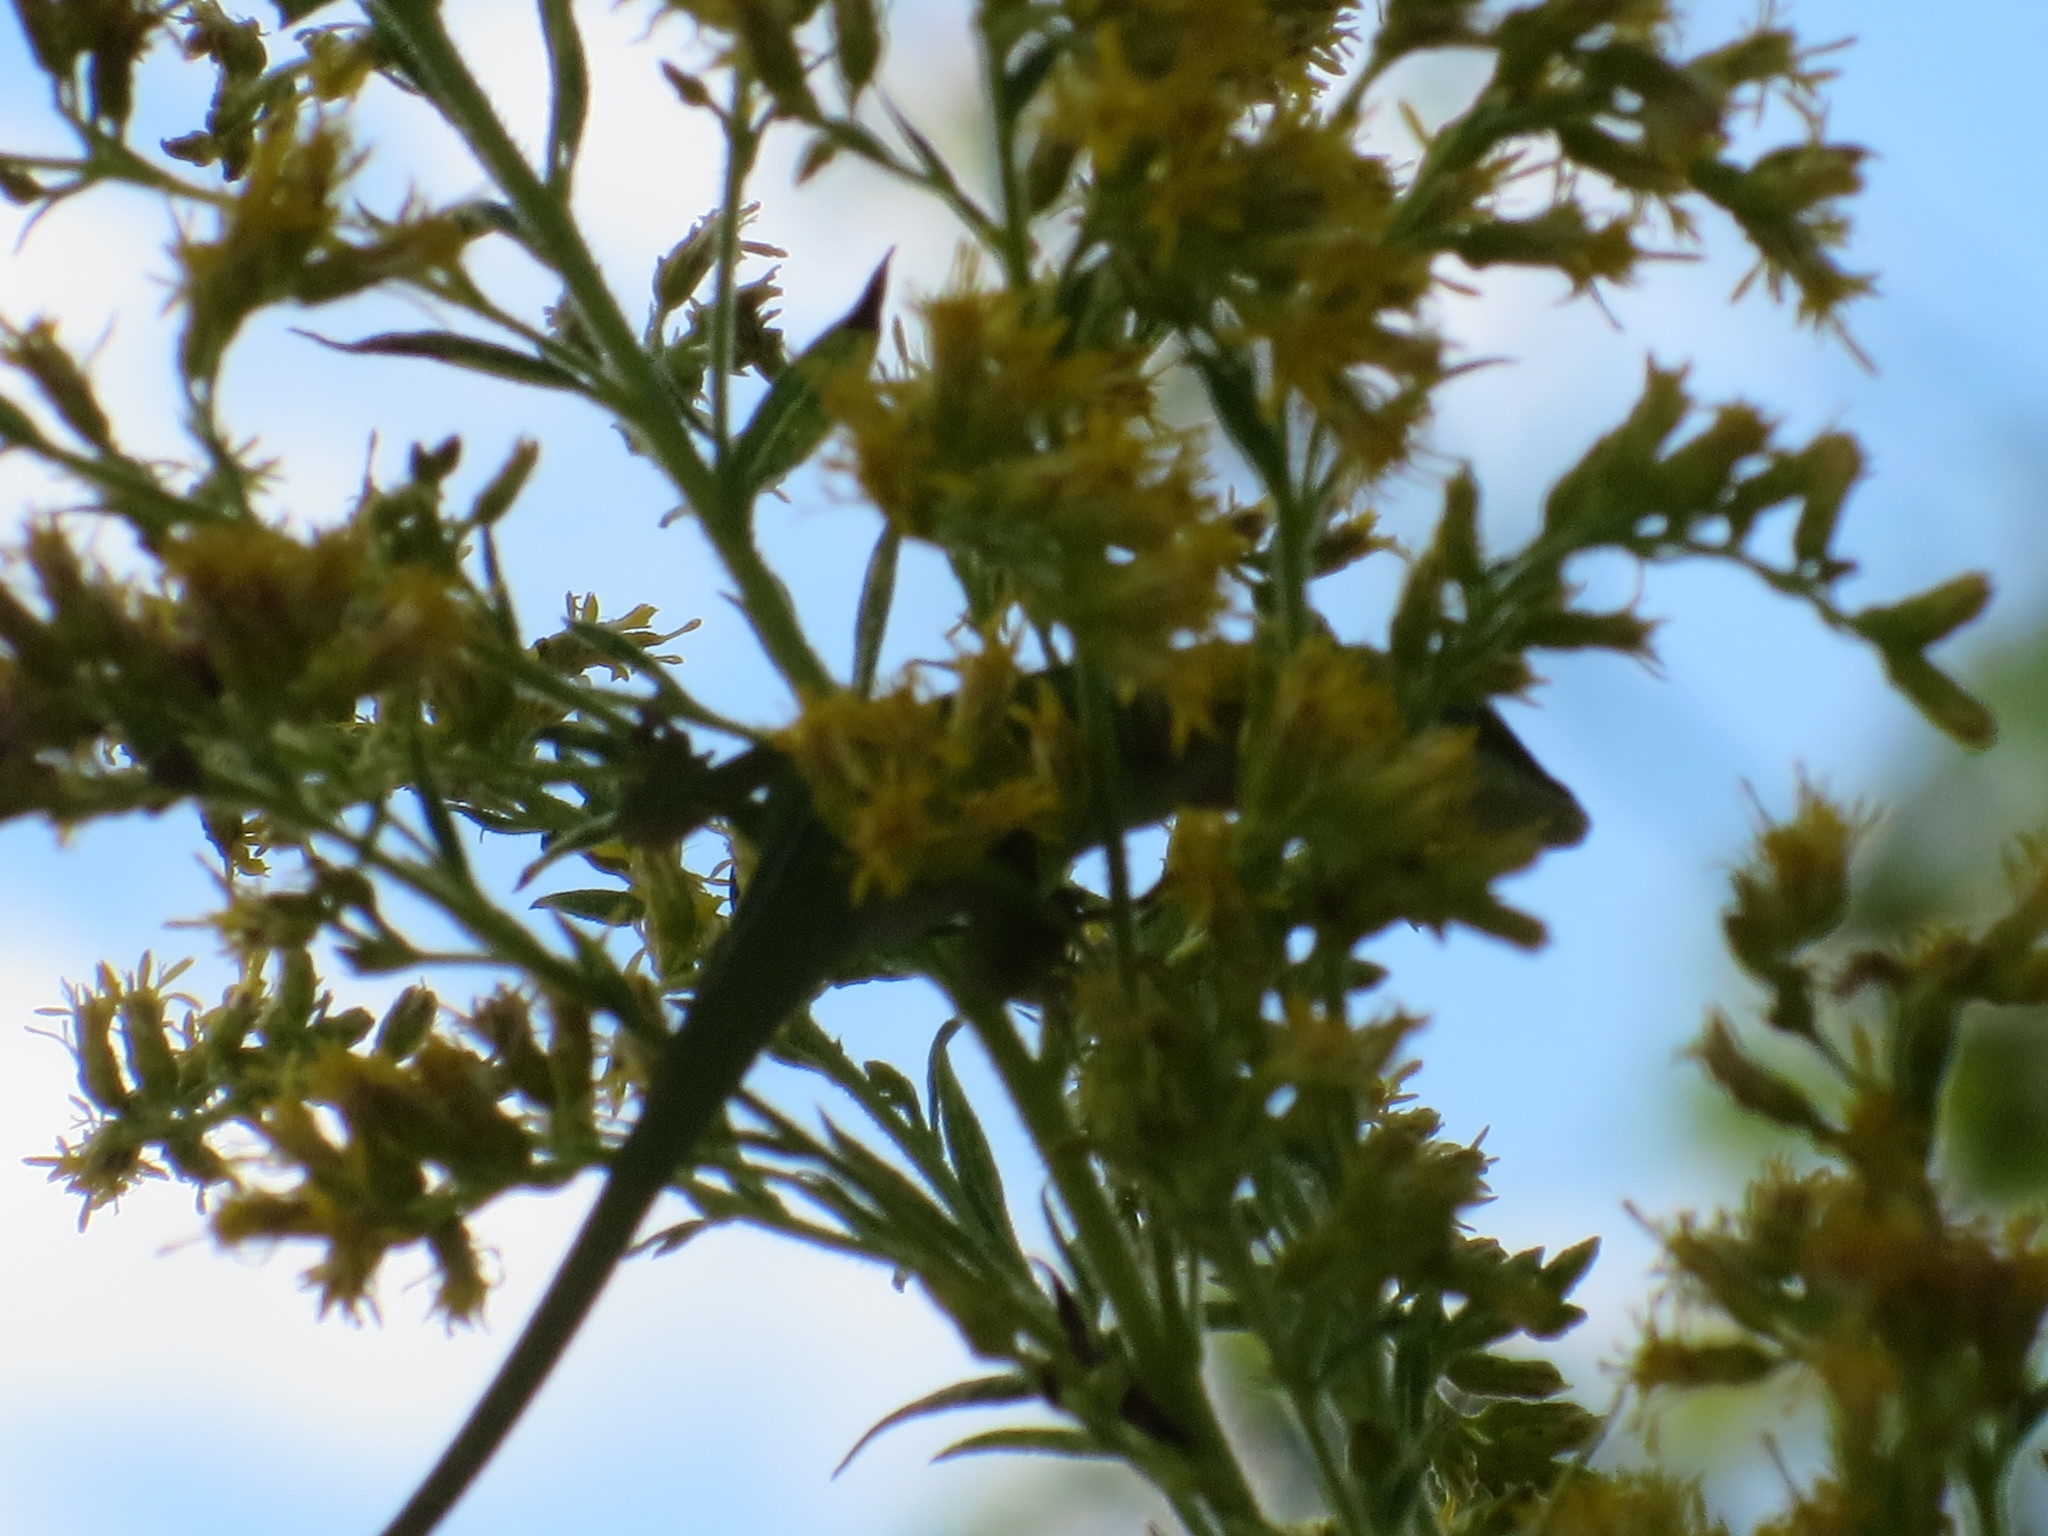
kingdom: Animalia
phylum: Chordata
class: Squamata
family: Dactyloidae
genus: Anolis
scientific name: Anolis carolinensis
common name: Green anole
